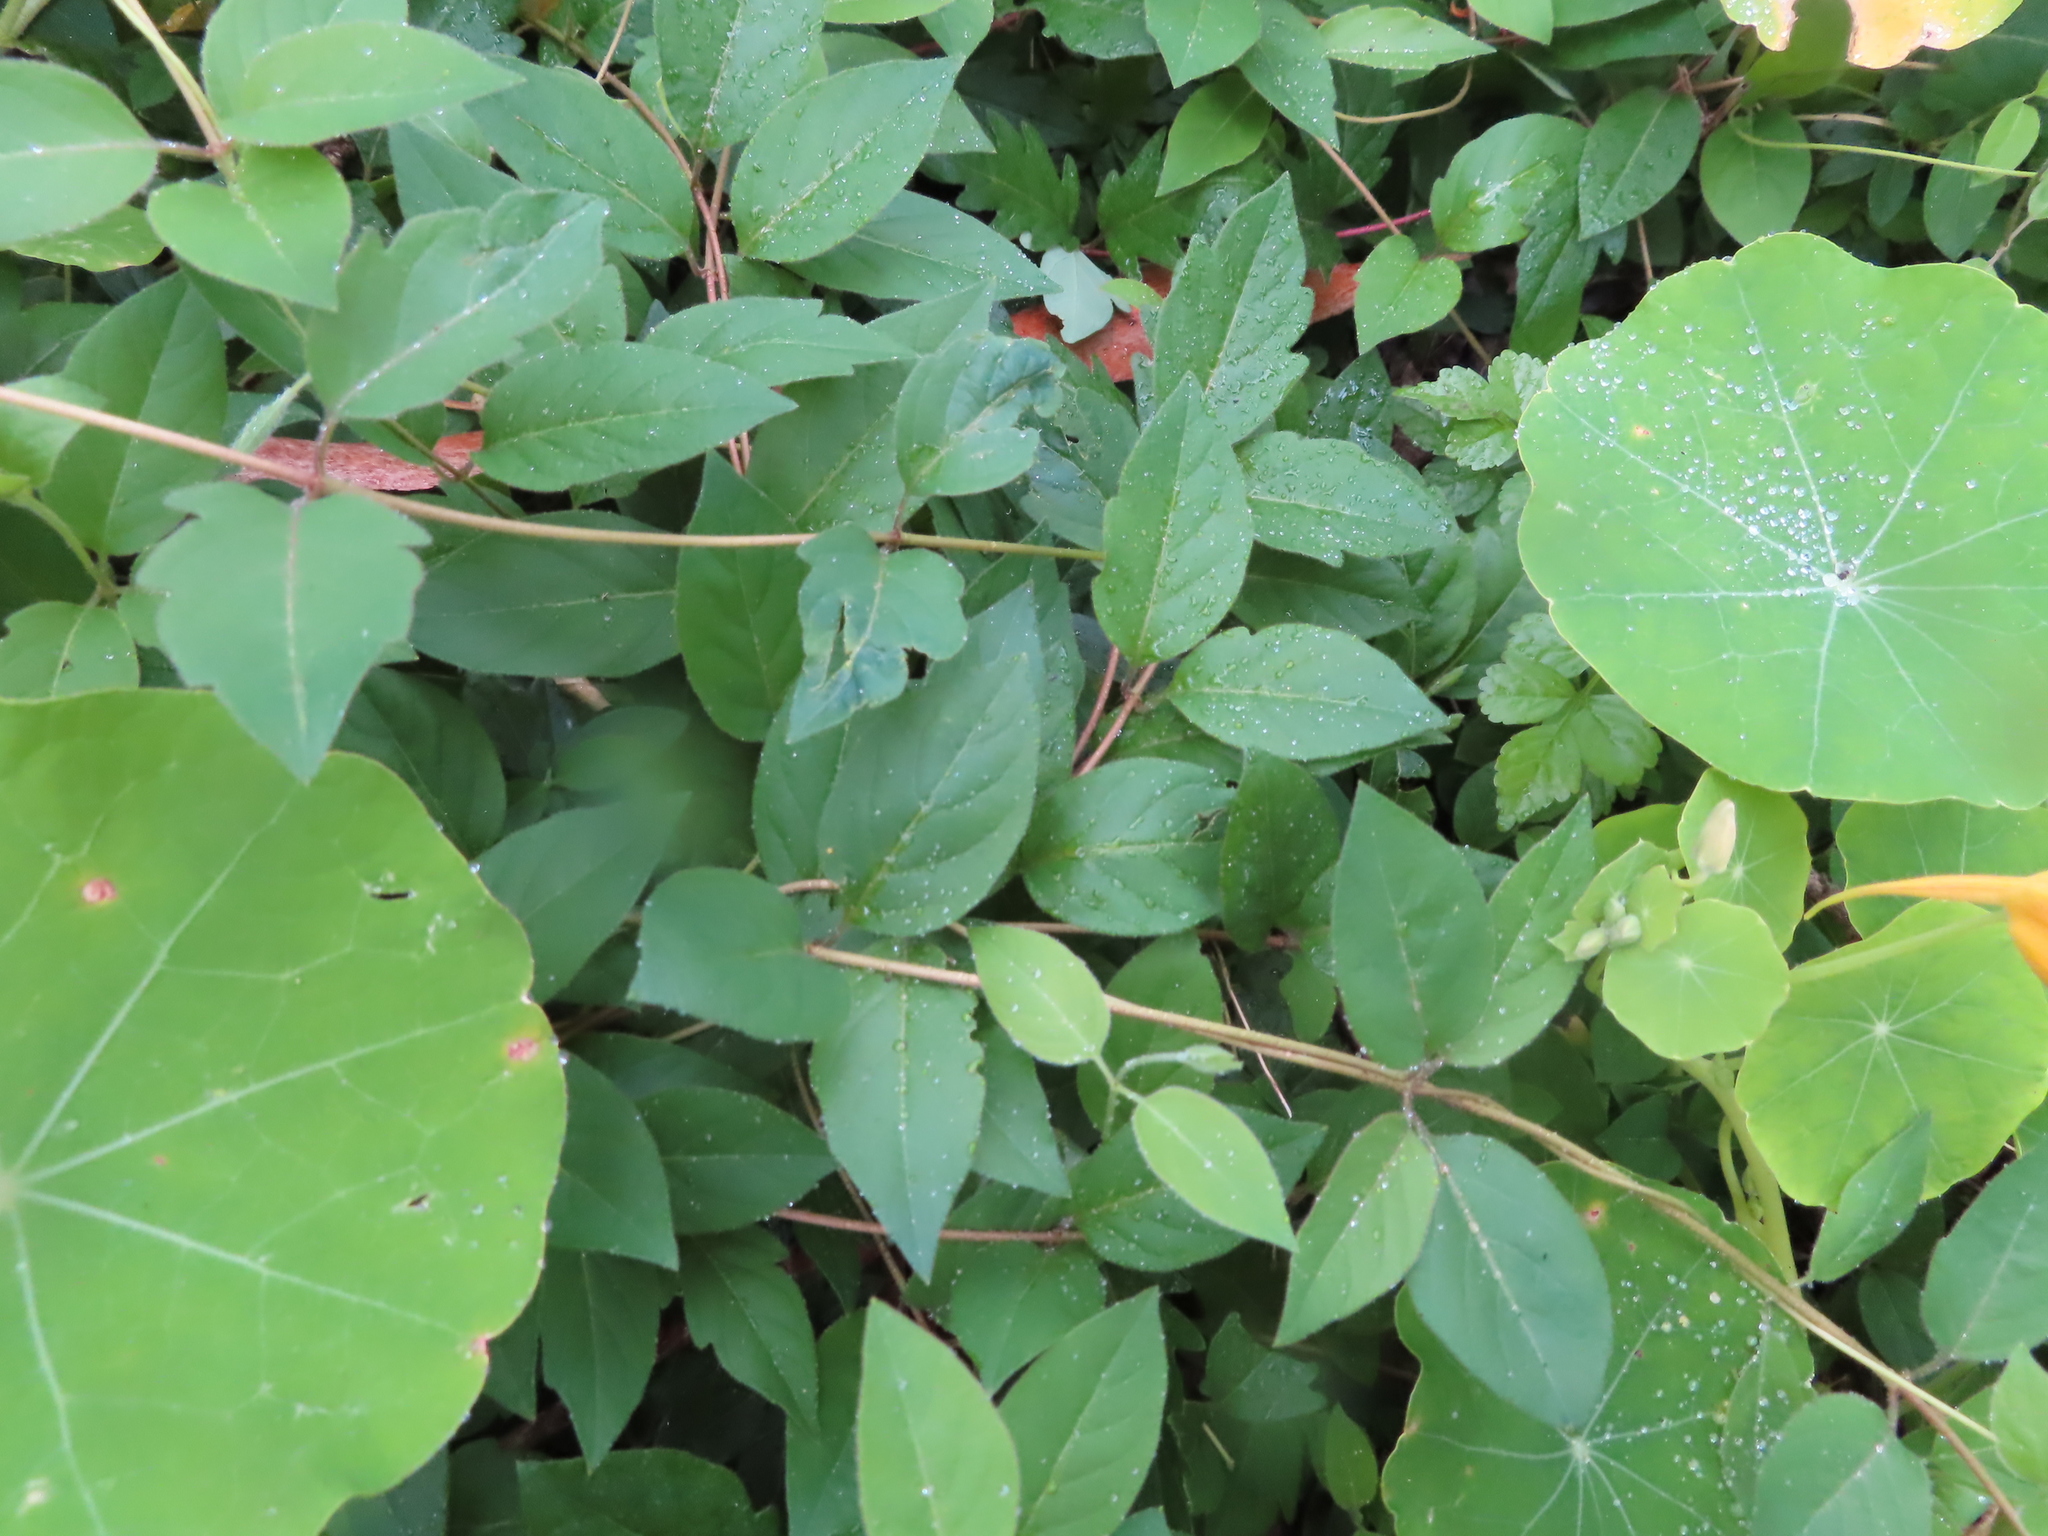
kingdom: Plantae
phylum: Tracheophyta
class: Magnoliopsida
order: Dipsacales
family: Caprifoliaceae
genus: Lonicera
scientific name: Lonicera japonica
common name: Japanese honeysuckle
